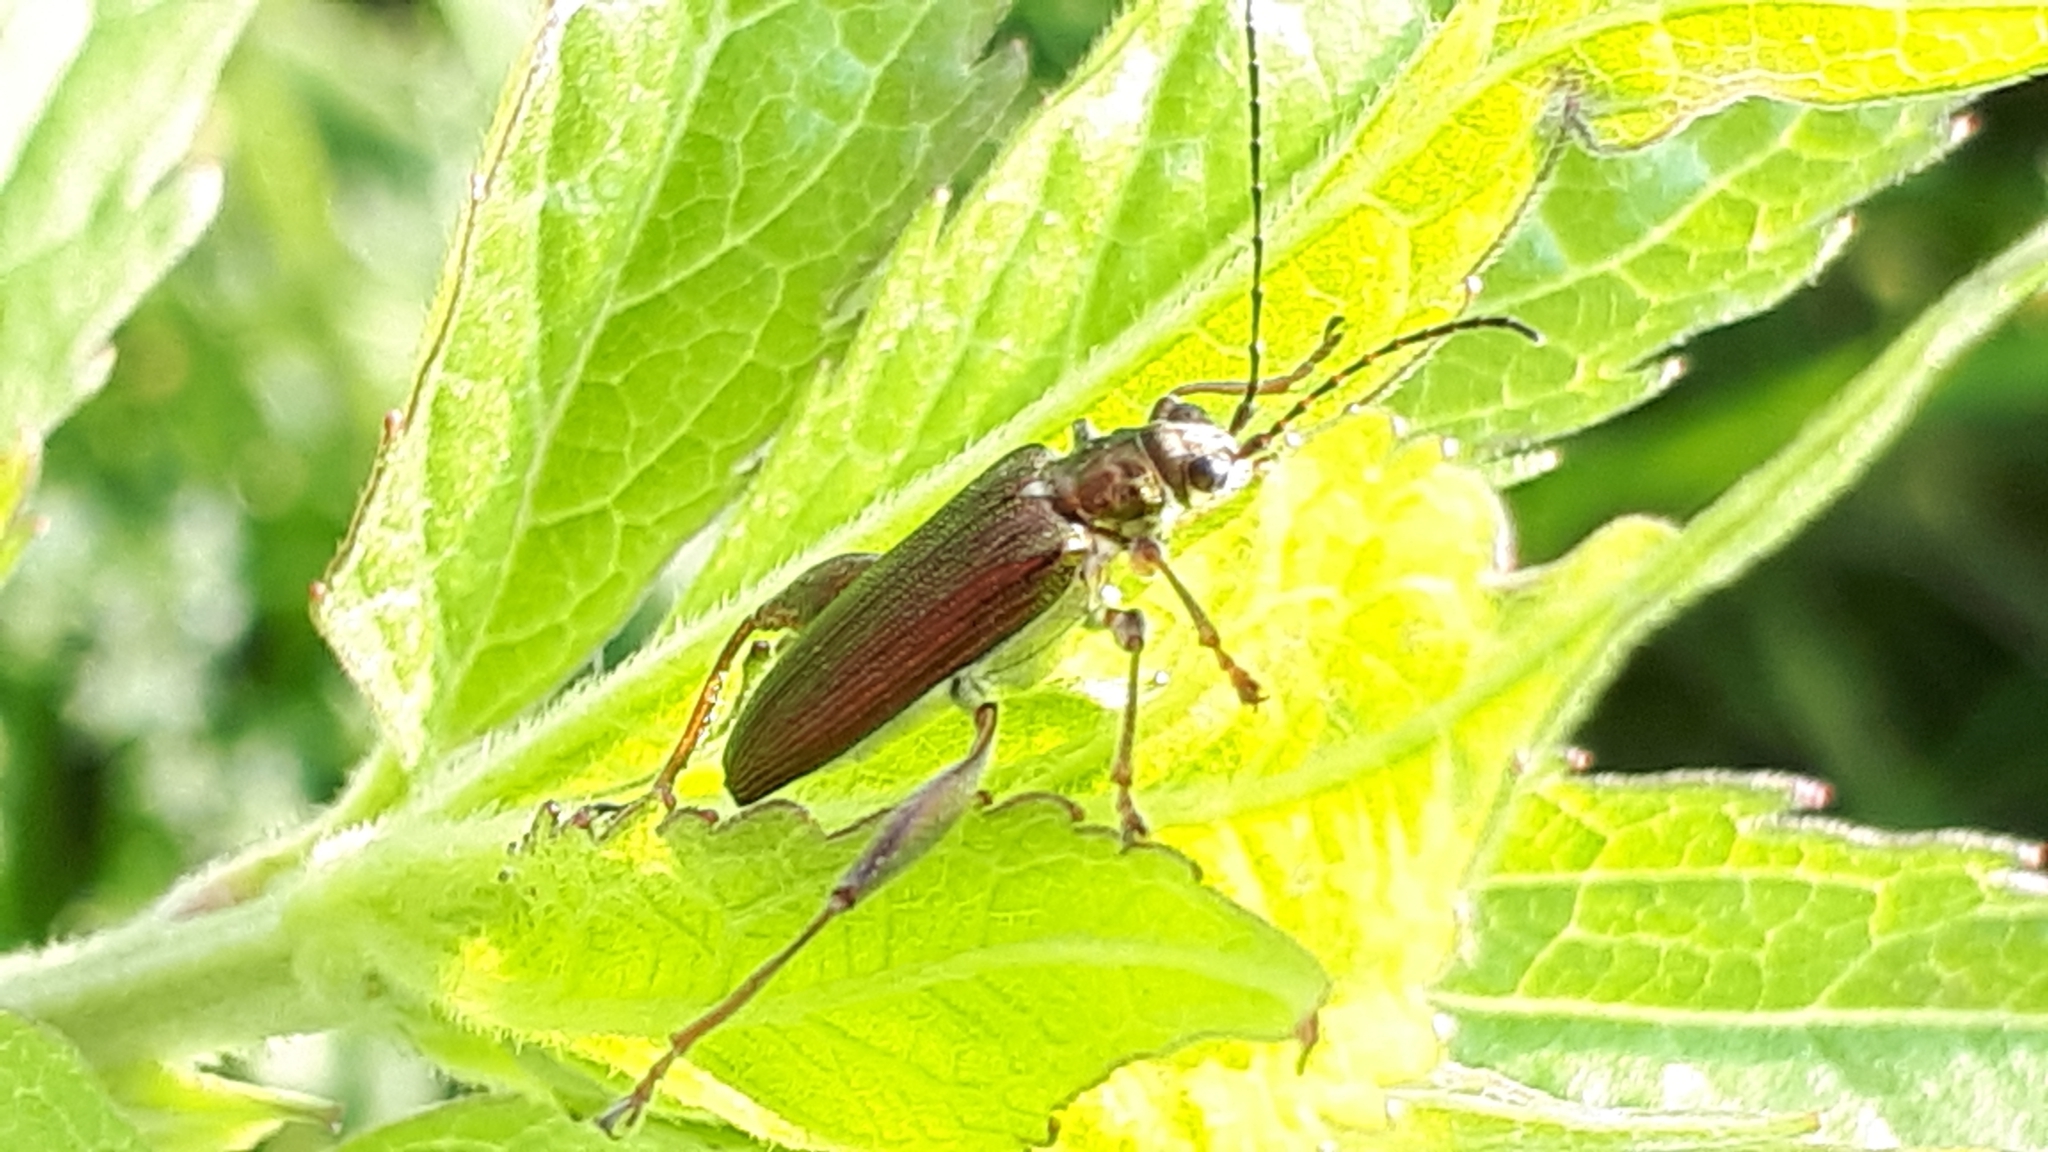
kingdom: Animalia
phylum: Arthropoda
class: Insecta
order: Coleoptera
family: Chrysomelidae
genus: Donacia
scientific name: Donacia crassipes
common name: Water-lily reed beetle
